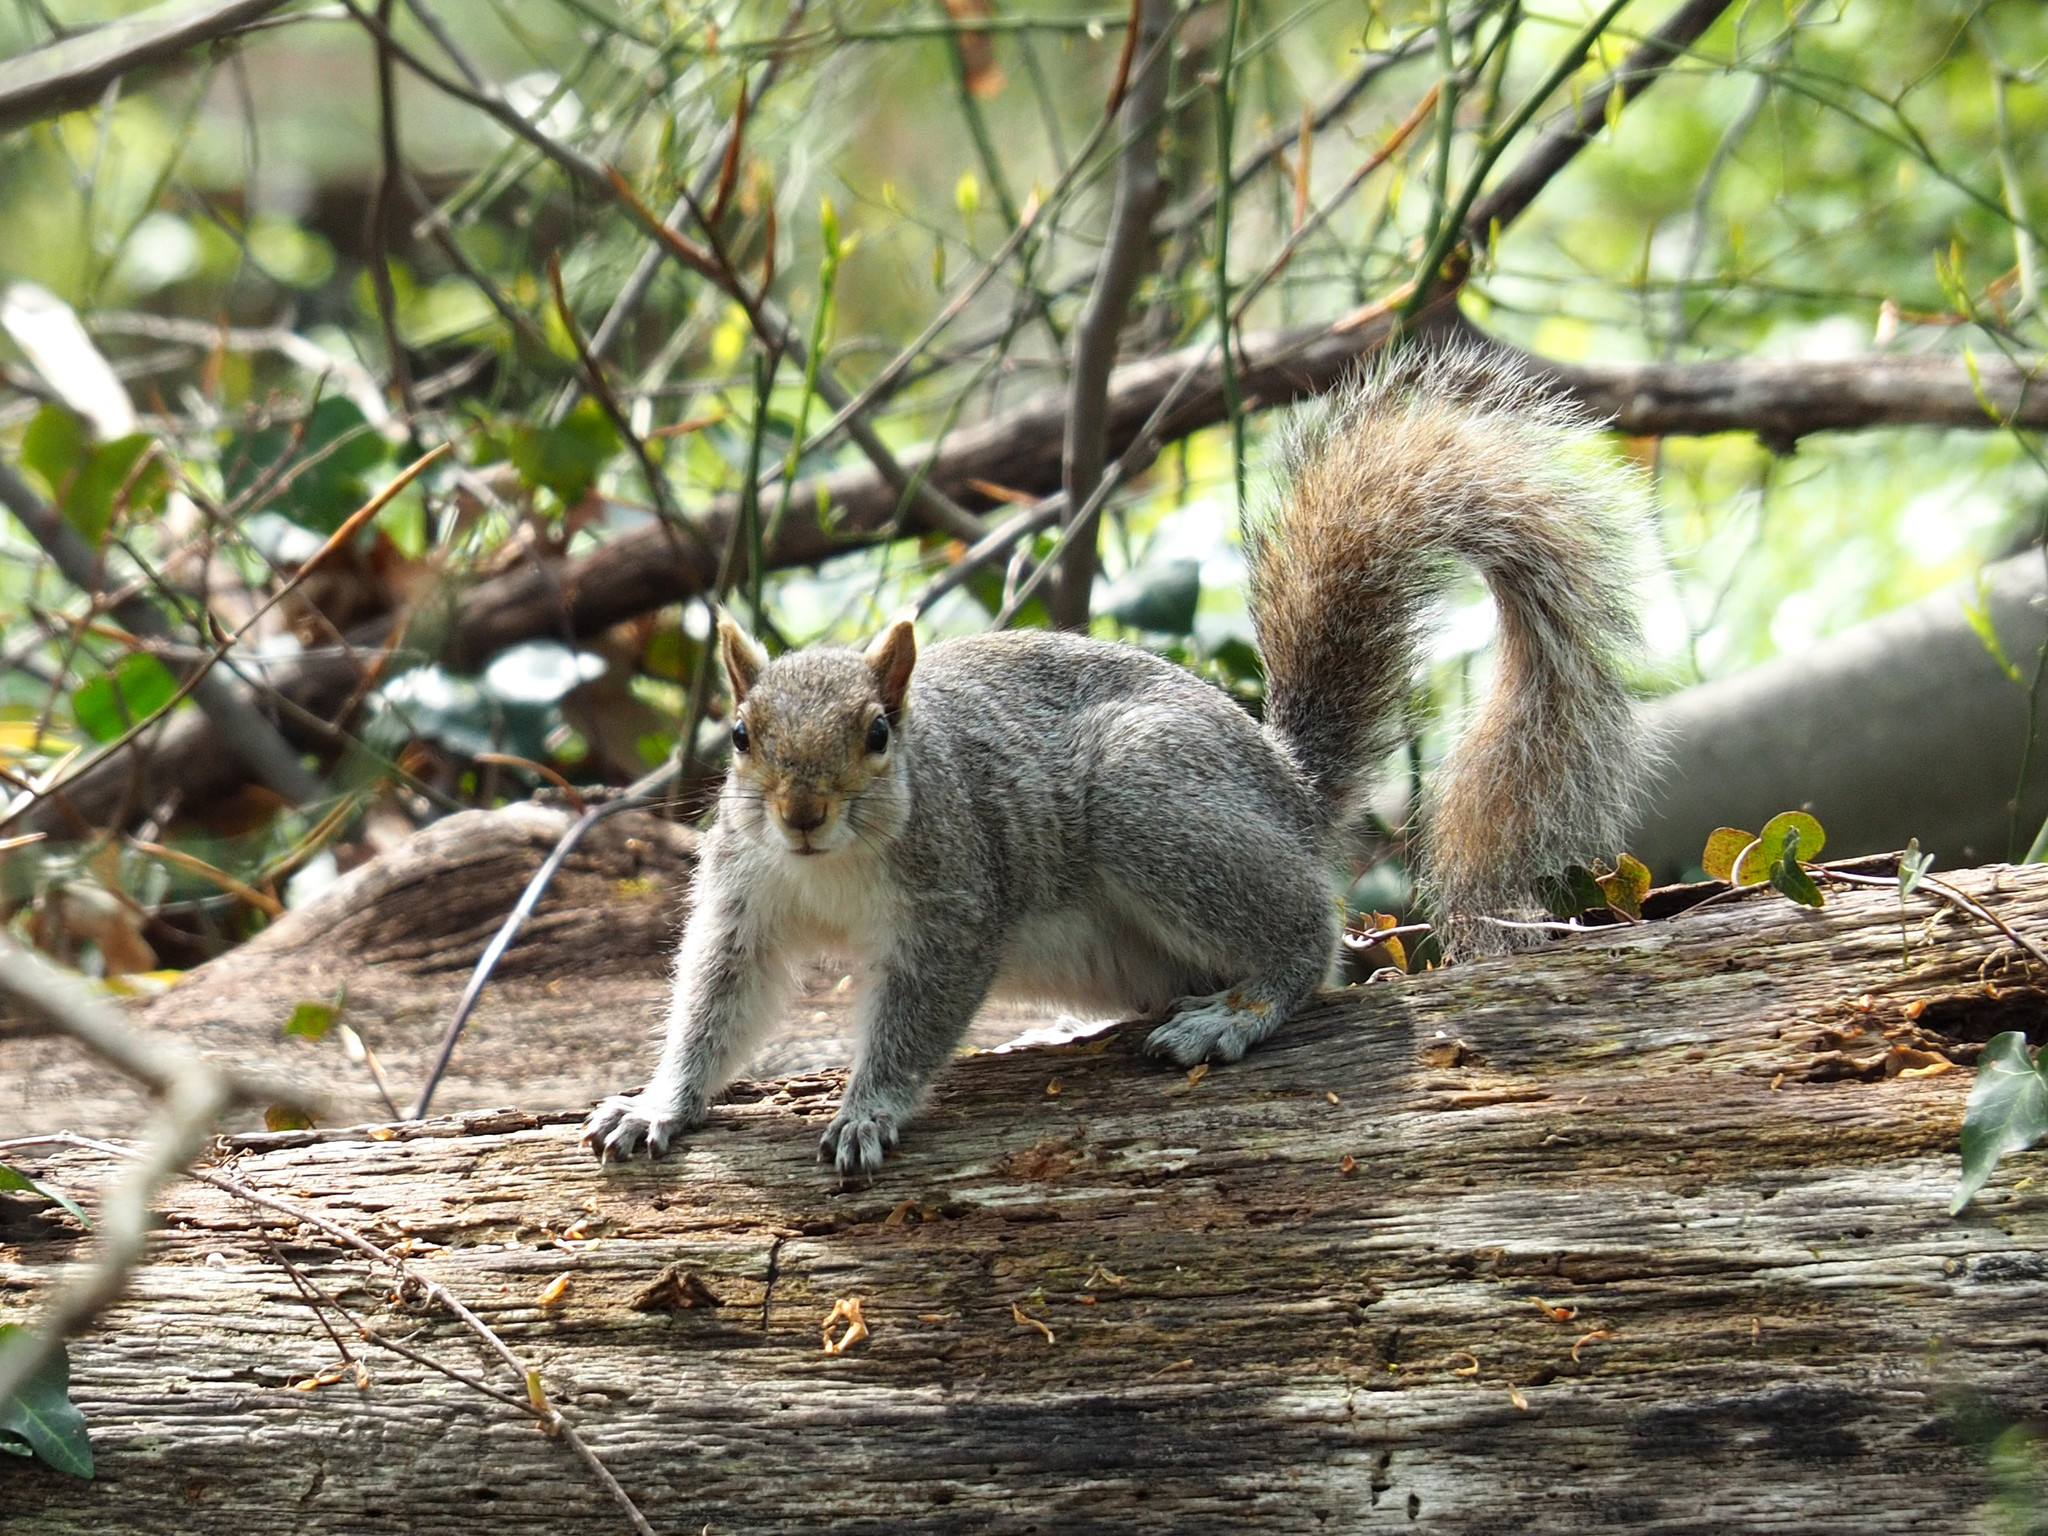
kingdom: Animalia
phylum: Chordata
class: Mammalia
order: Rodentia
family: Sciuridae
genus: Sciurus
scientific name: Sciurus carolinensis
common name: Eastern gray squirrel
